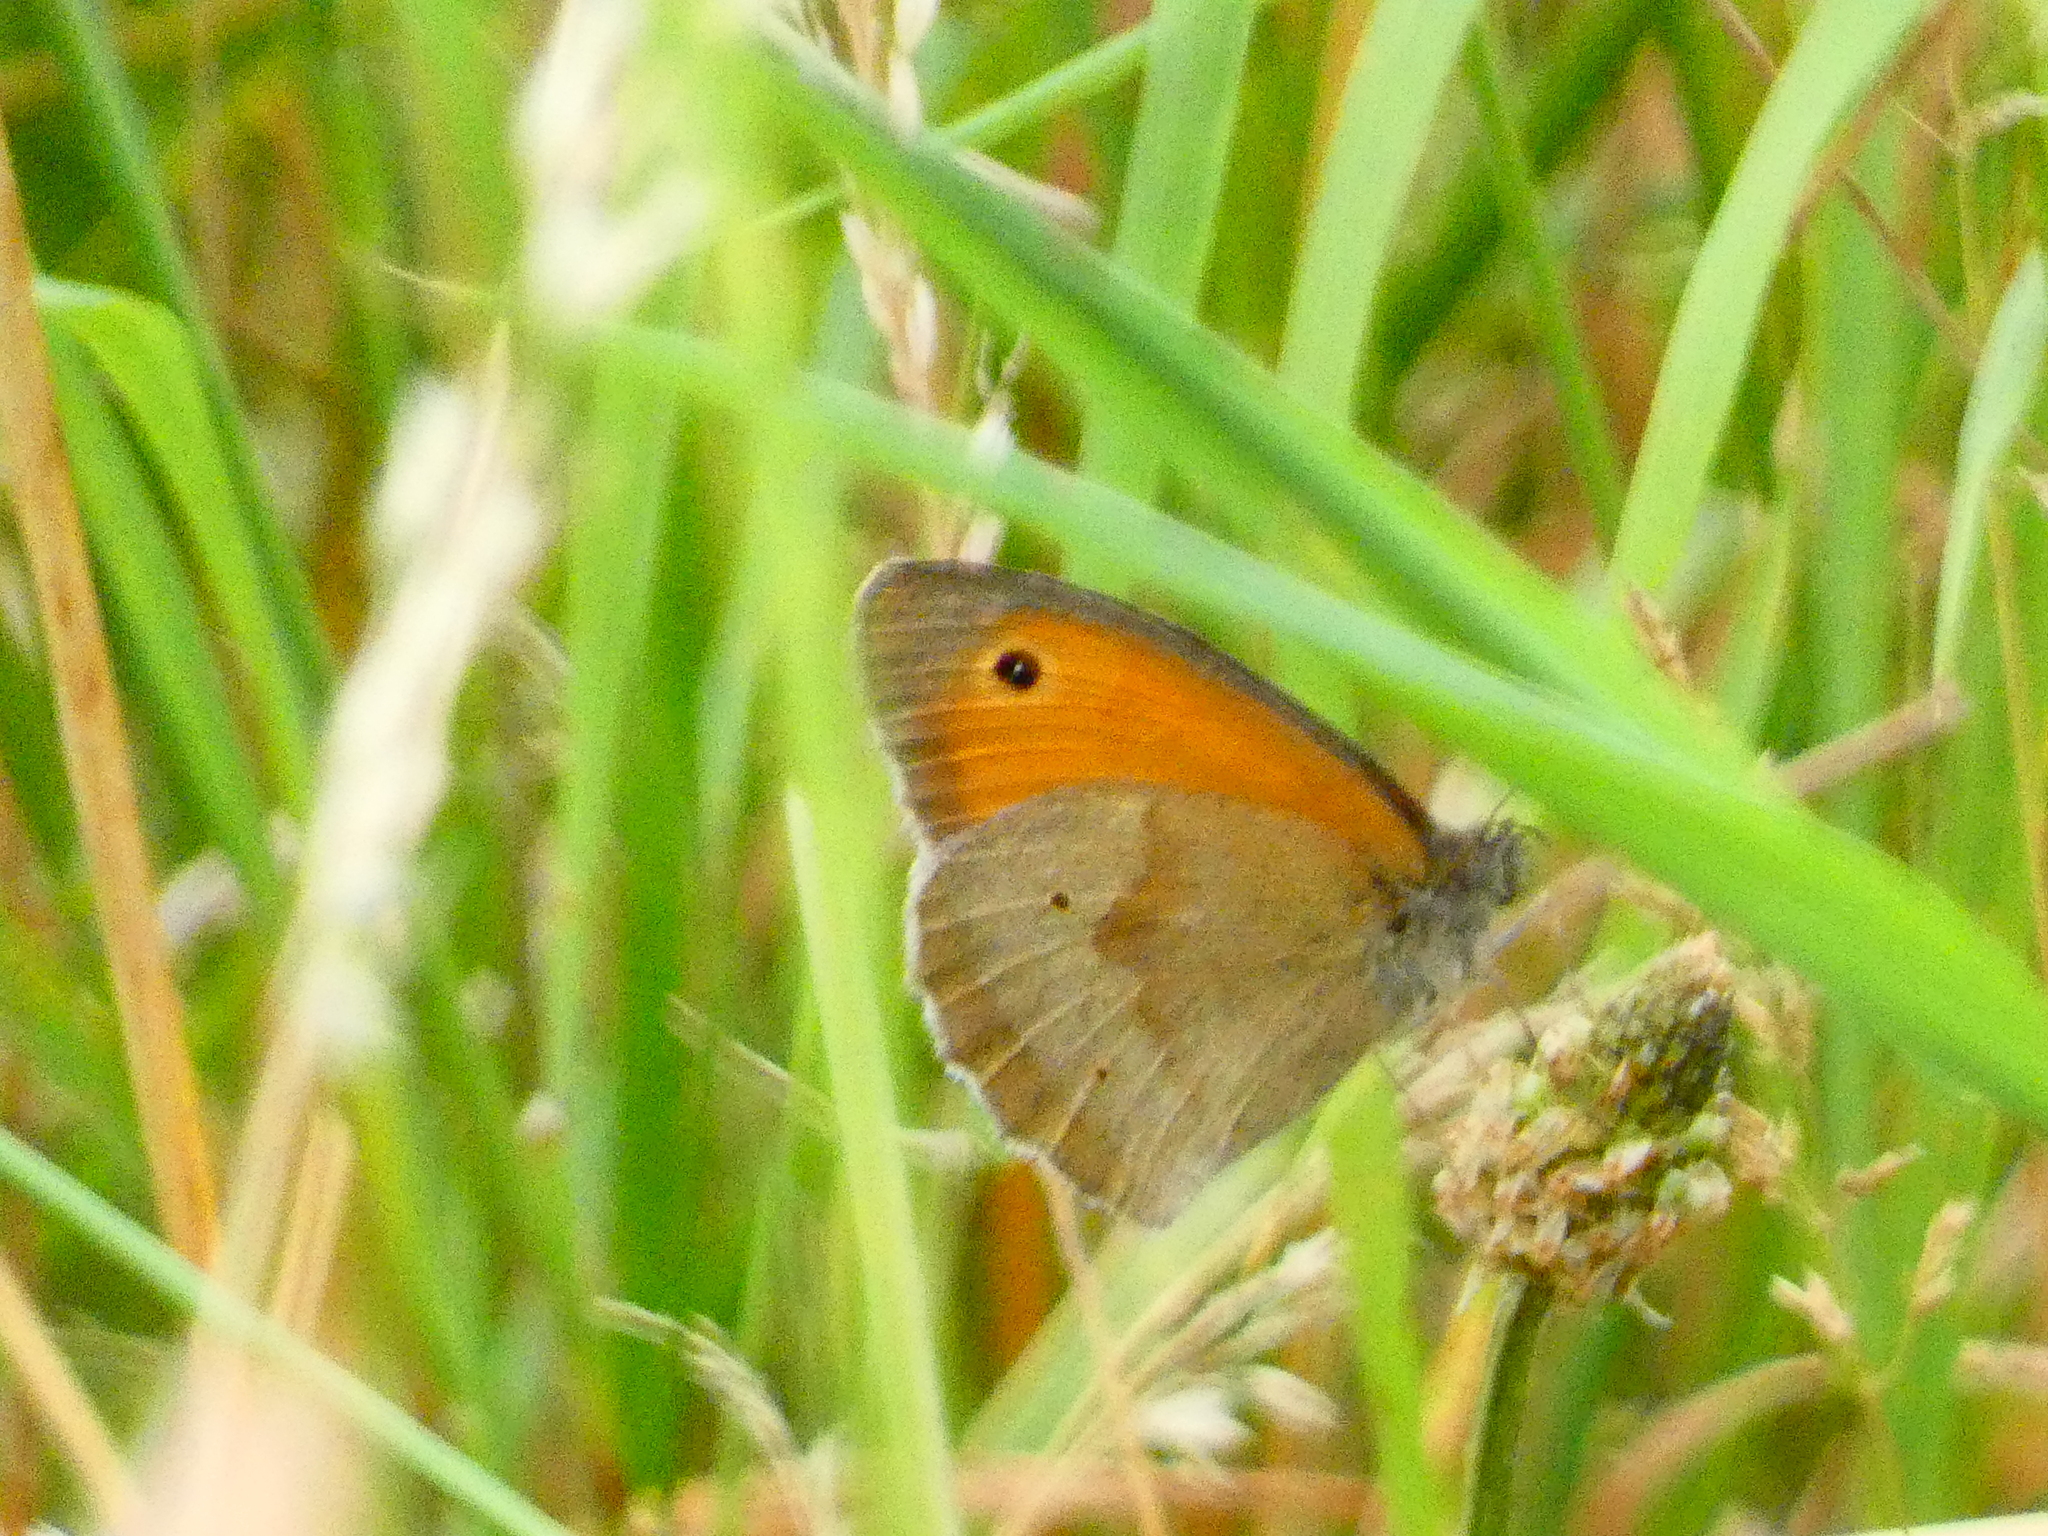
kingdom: Animalia
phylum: Arthropoda
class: Insecta
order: Lepidoptera
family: Nymphalidae
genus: Maniola
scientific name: Maniola jurtina
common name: Meadow brown
